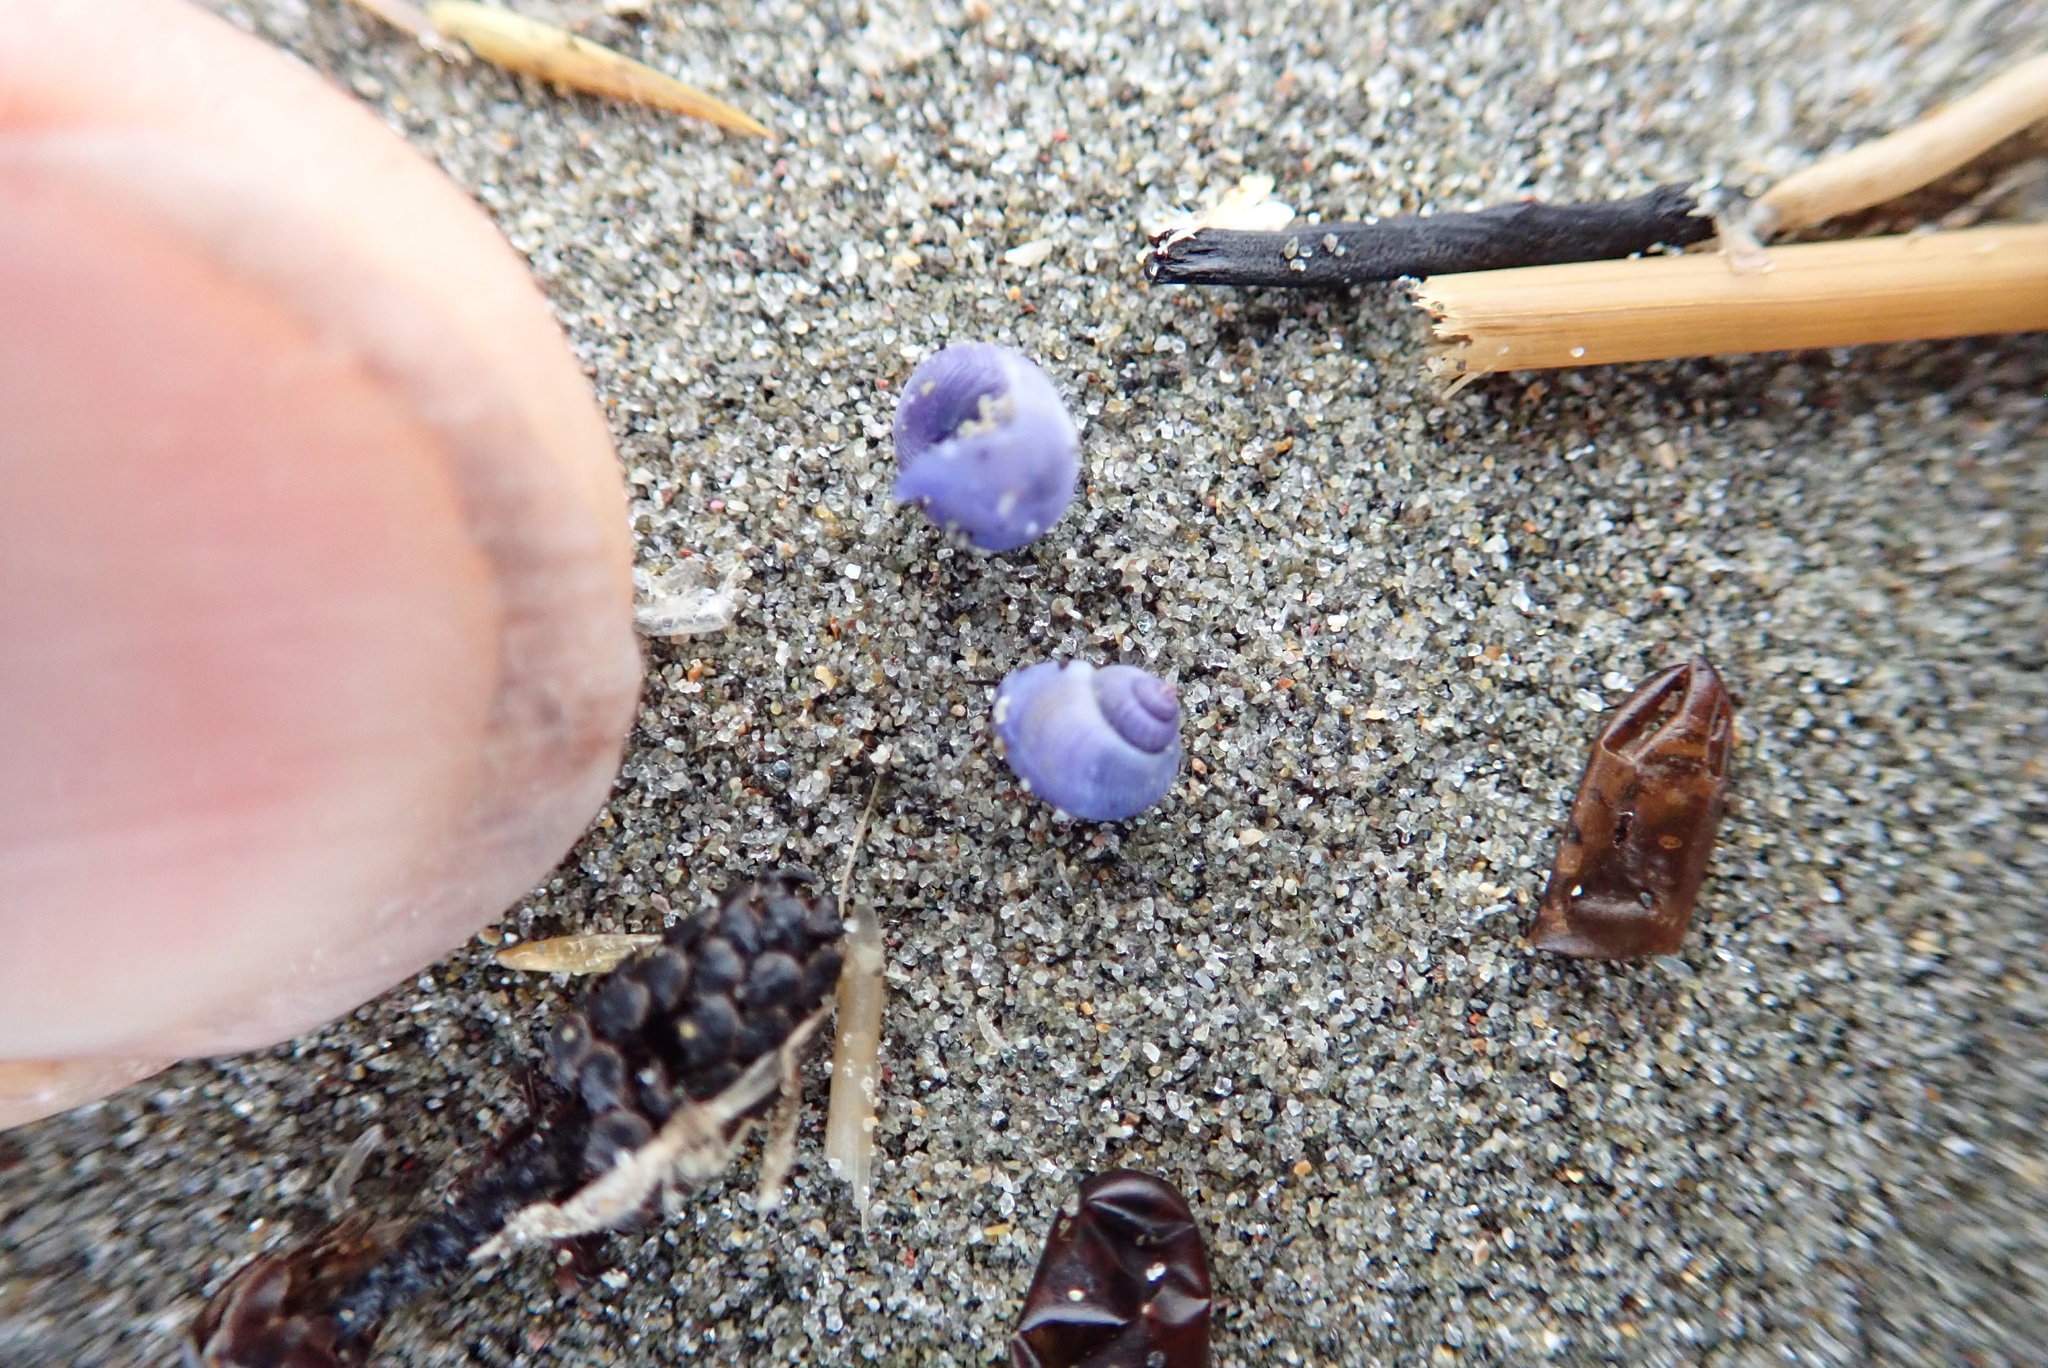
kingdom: Animalia
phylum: Mollusca
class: Gastropoda
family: Epitoniidae
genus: Janthina
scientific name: Janthina exigua
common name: Dwarf janthina
